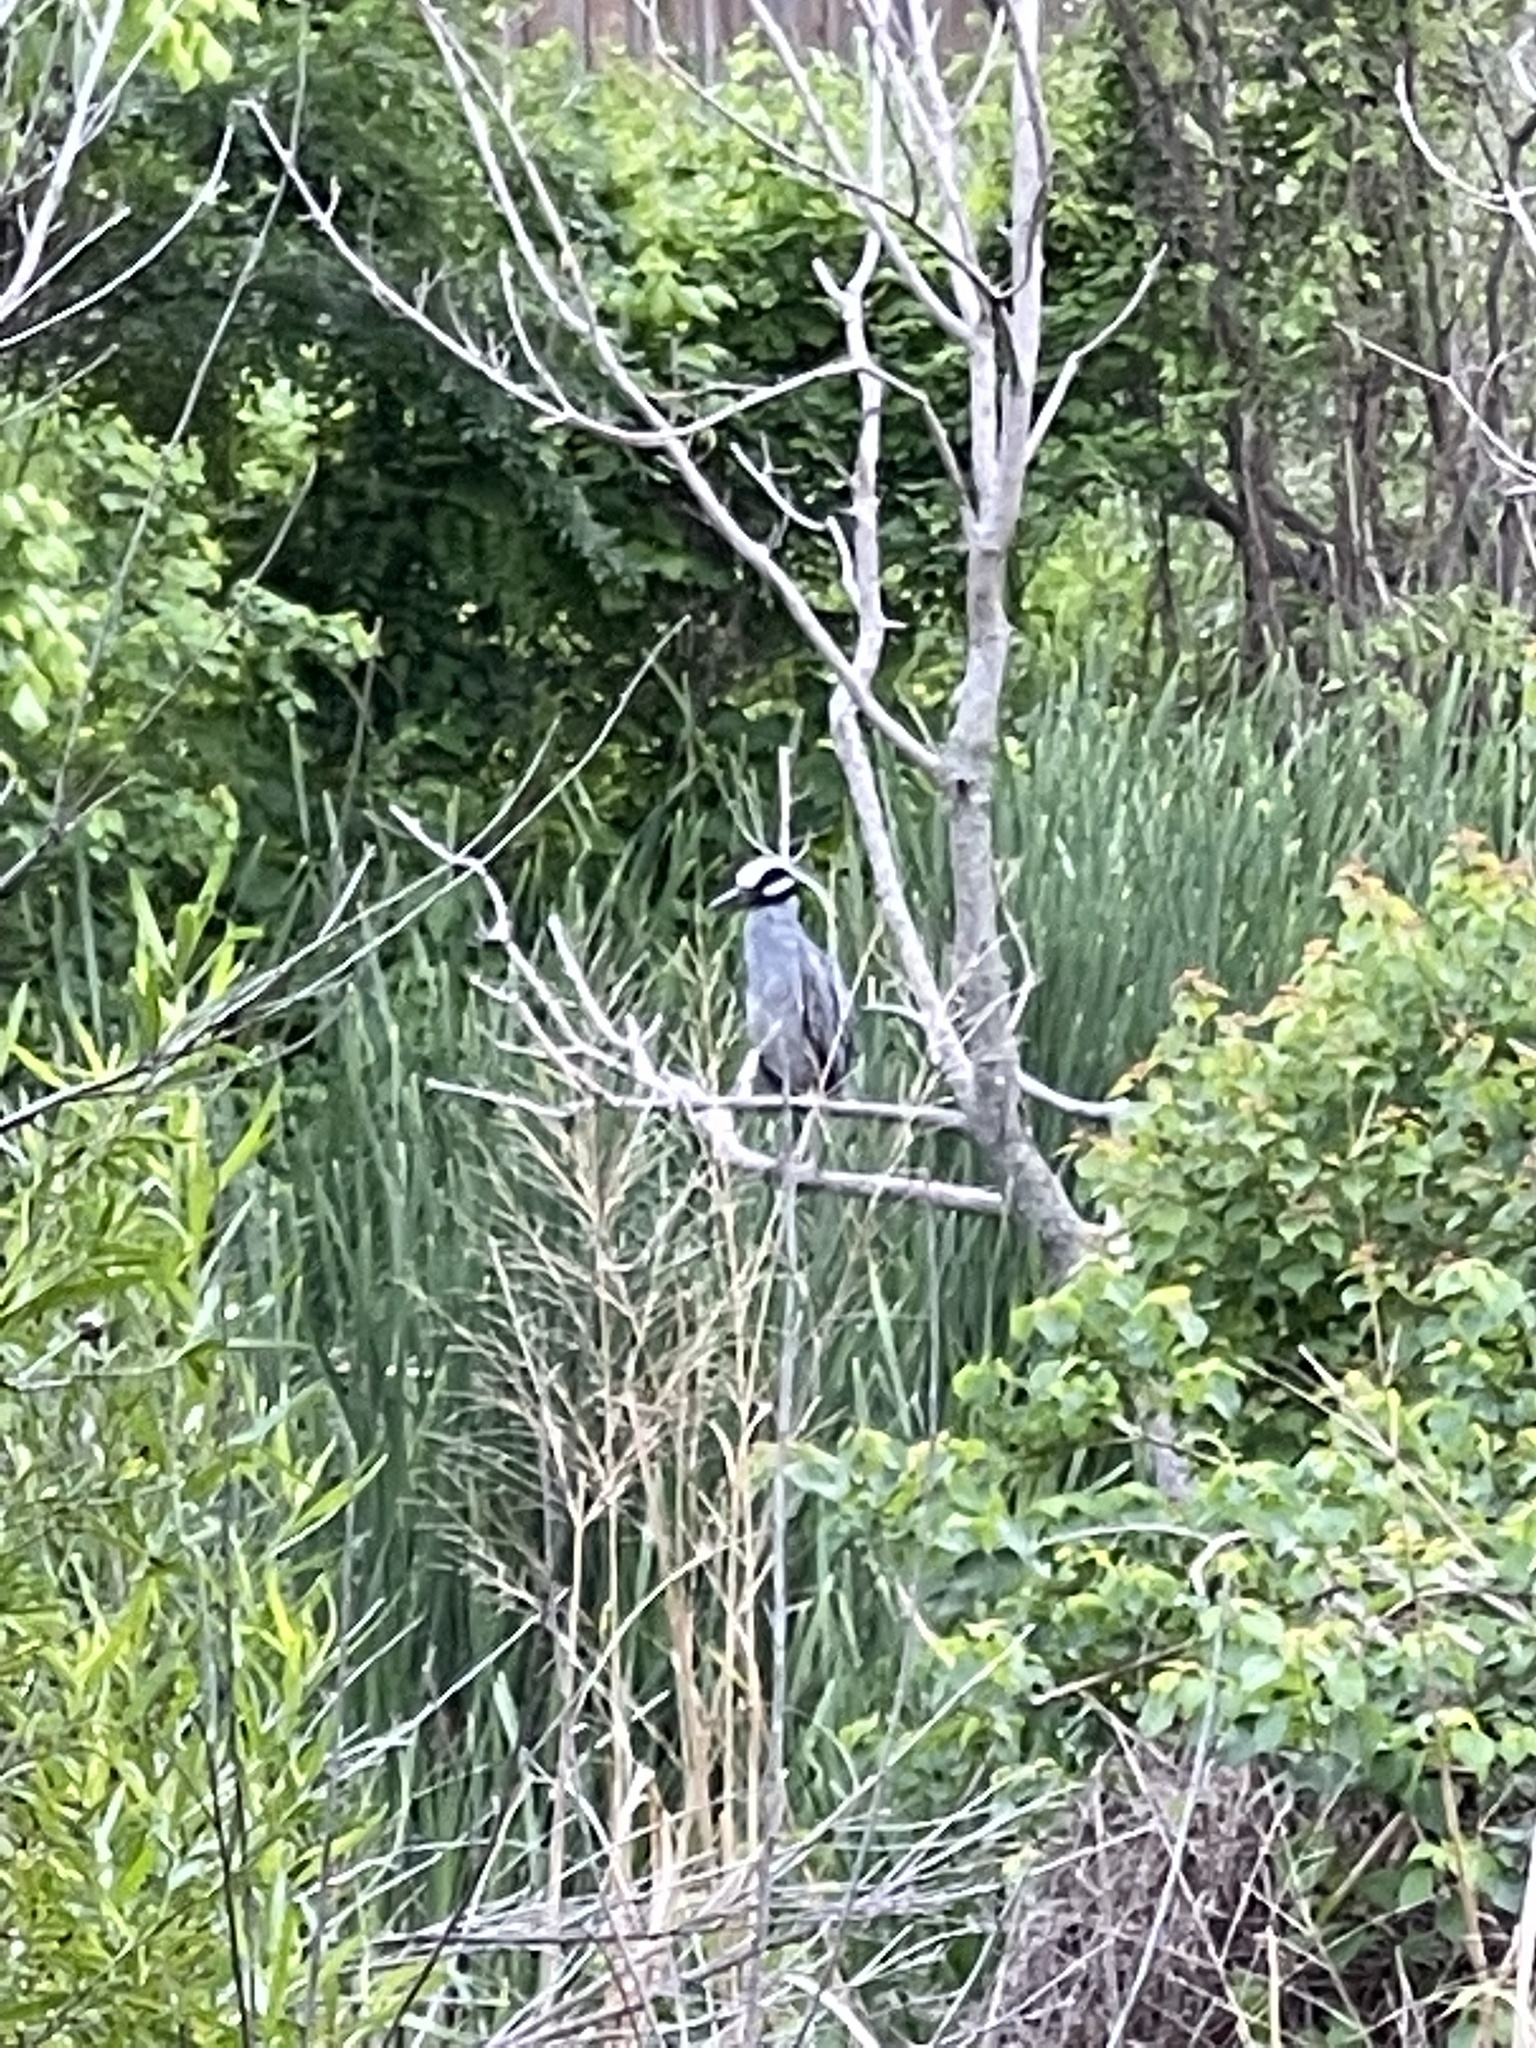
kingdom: Animalia
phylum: Chordata
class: Aves
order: Pelecaniformes
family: Ardeidae
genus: Nyctanassa
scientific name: Nyctanassa violacea
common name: Yellow-crowned night heron
